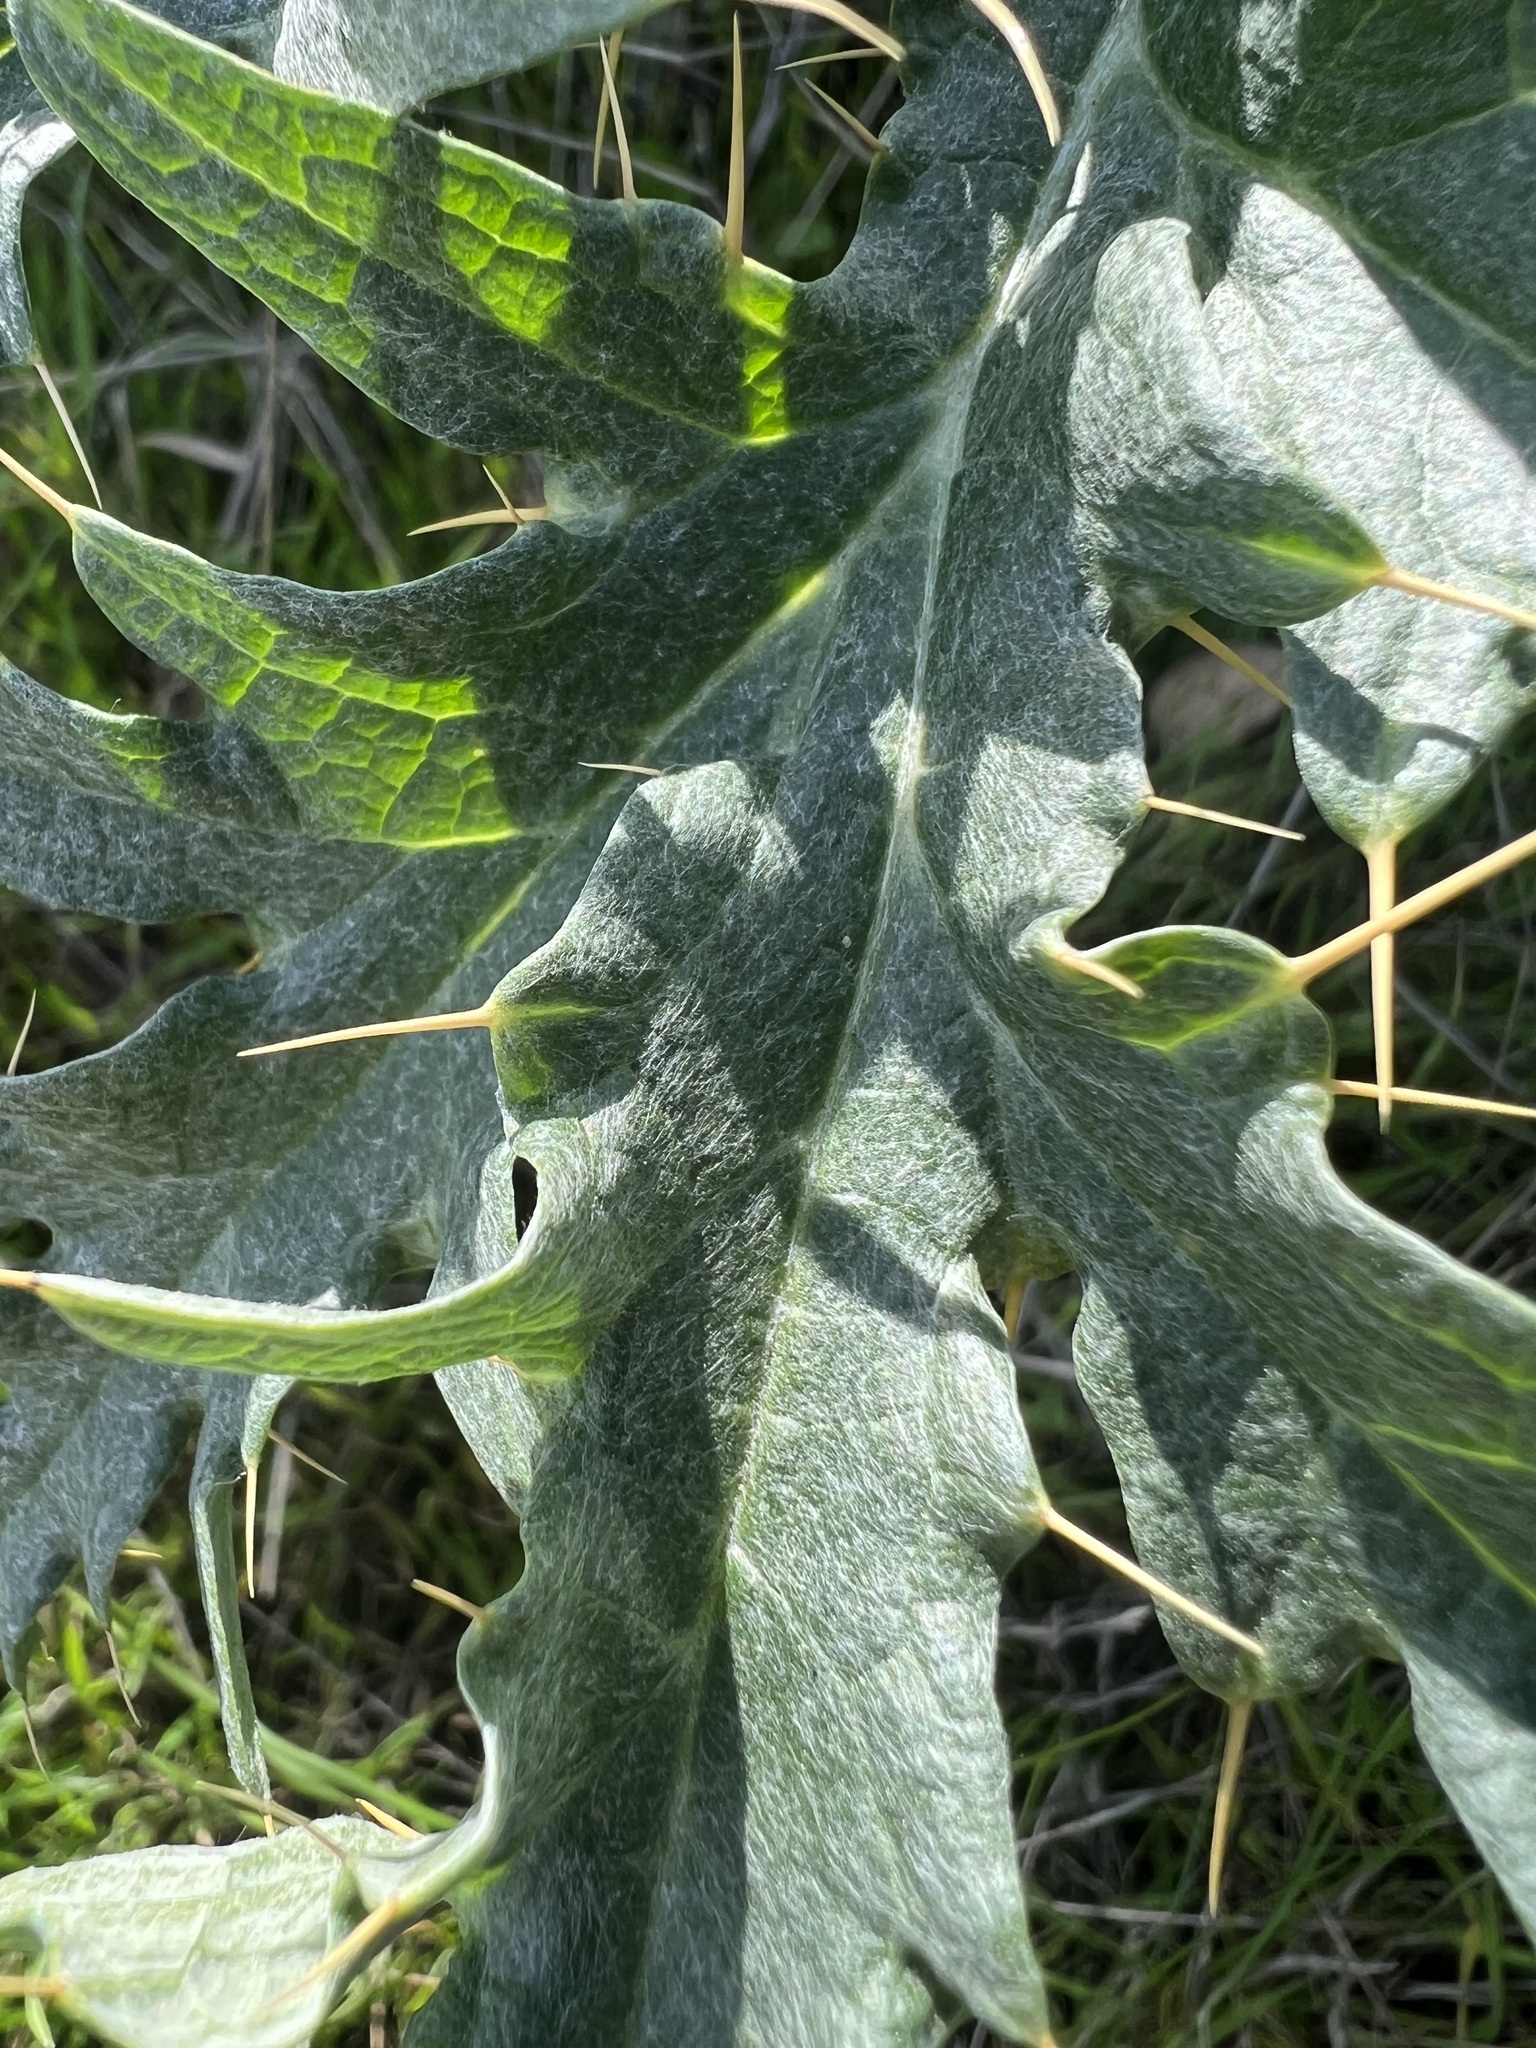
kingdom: Plantae
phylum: Tracheophyta
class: Magnoliopsida
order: Asterales
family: Asteraceae
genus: Cynara
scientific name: Cynara cardunculus
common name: Globe artichoke
